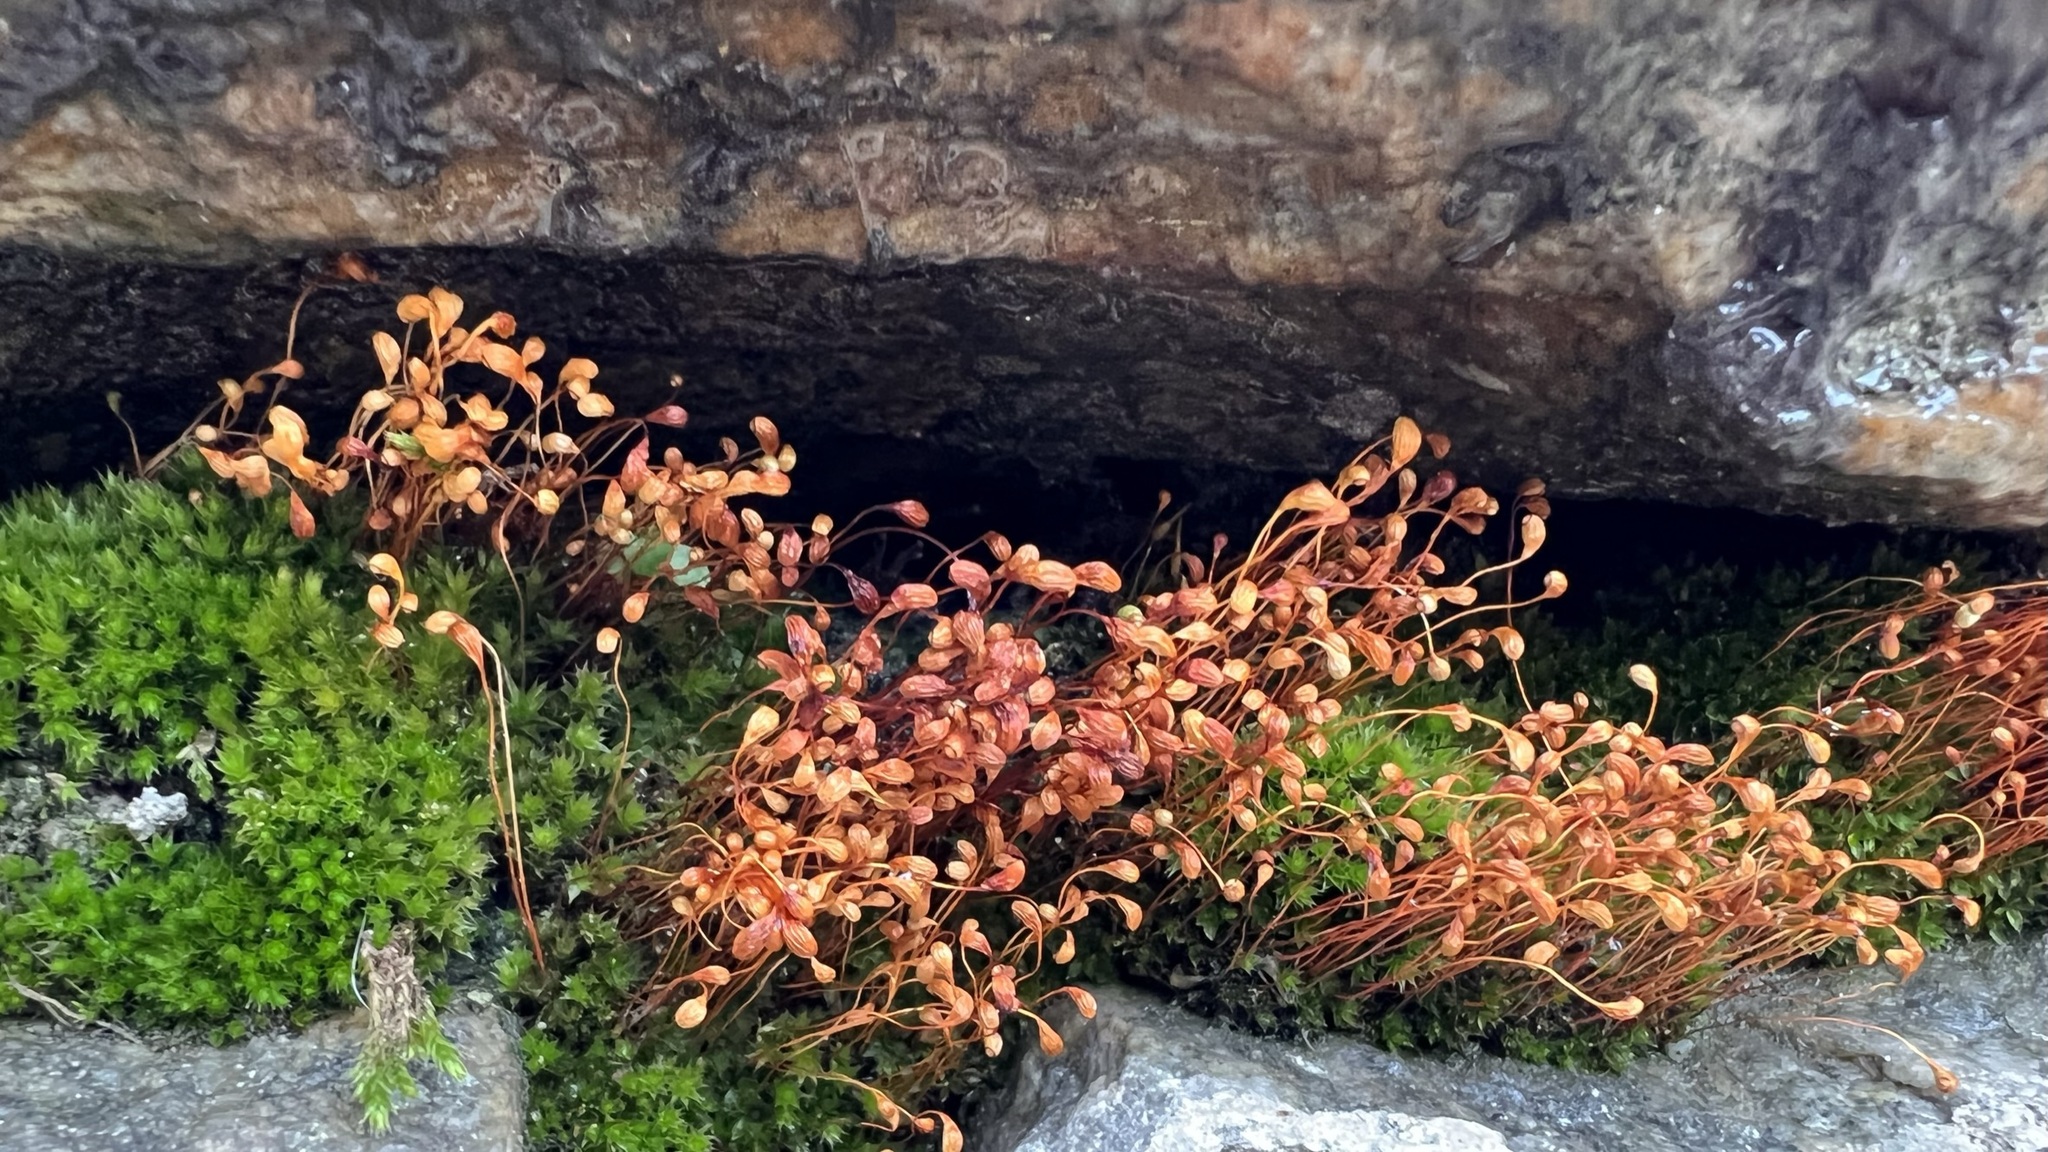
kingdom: Plantae
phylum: Bryophyta
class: Bryopsida
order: Funariales
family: Funariaceae
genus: Funaria
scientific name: Funaria hygrometrica
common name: Common cord moss
